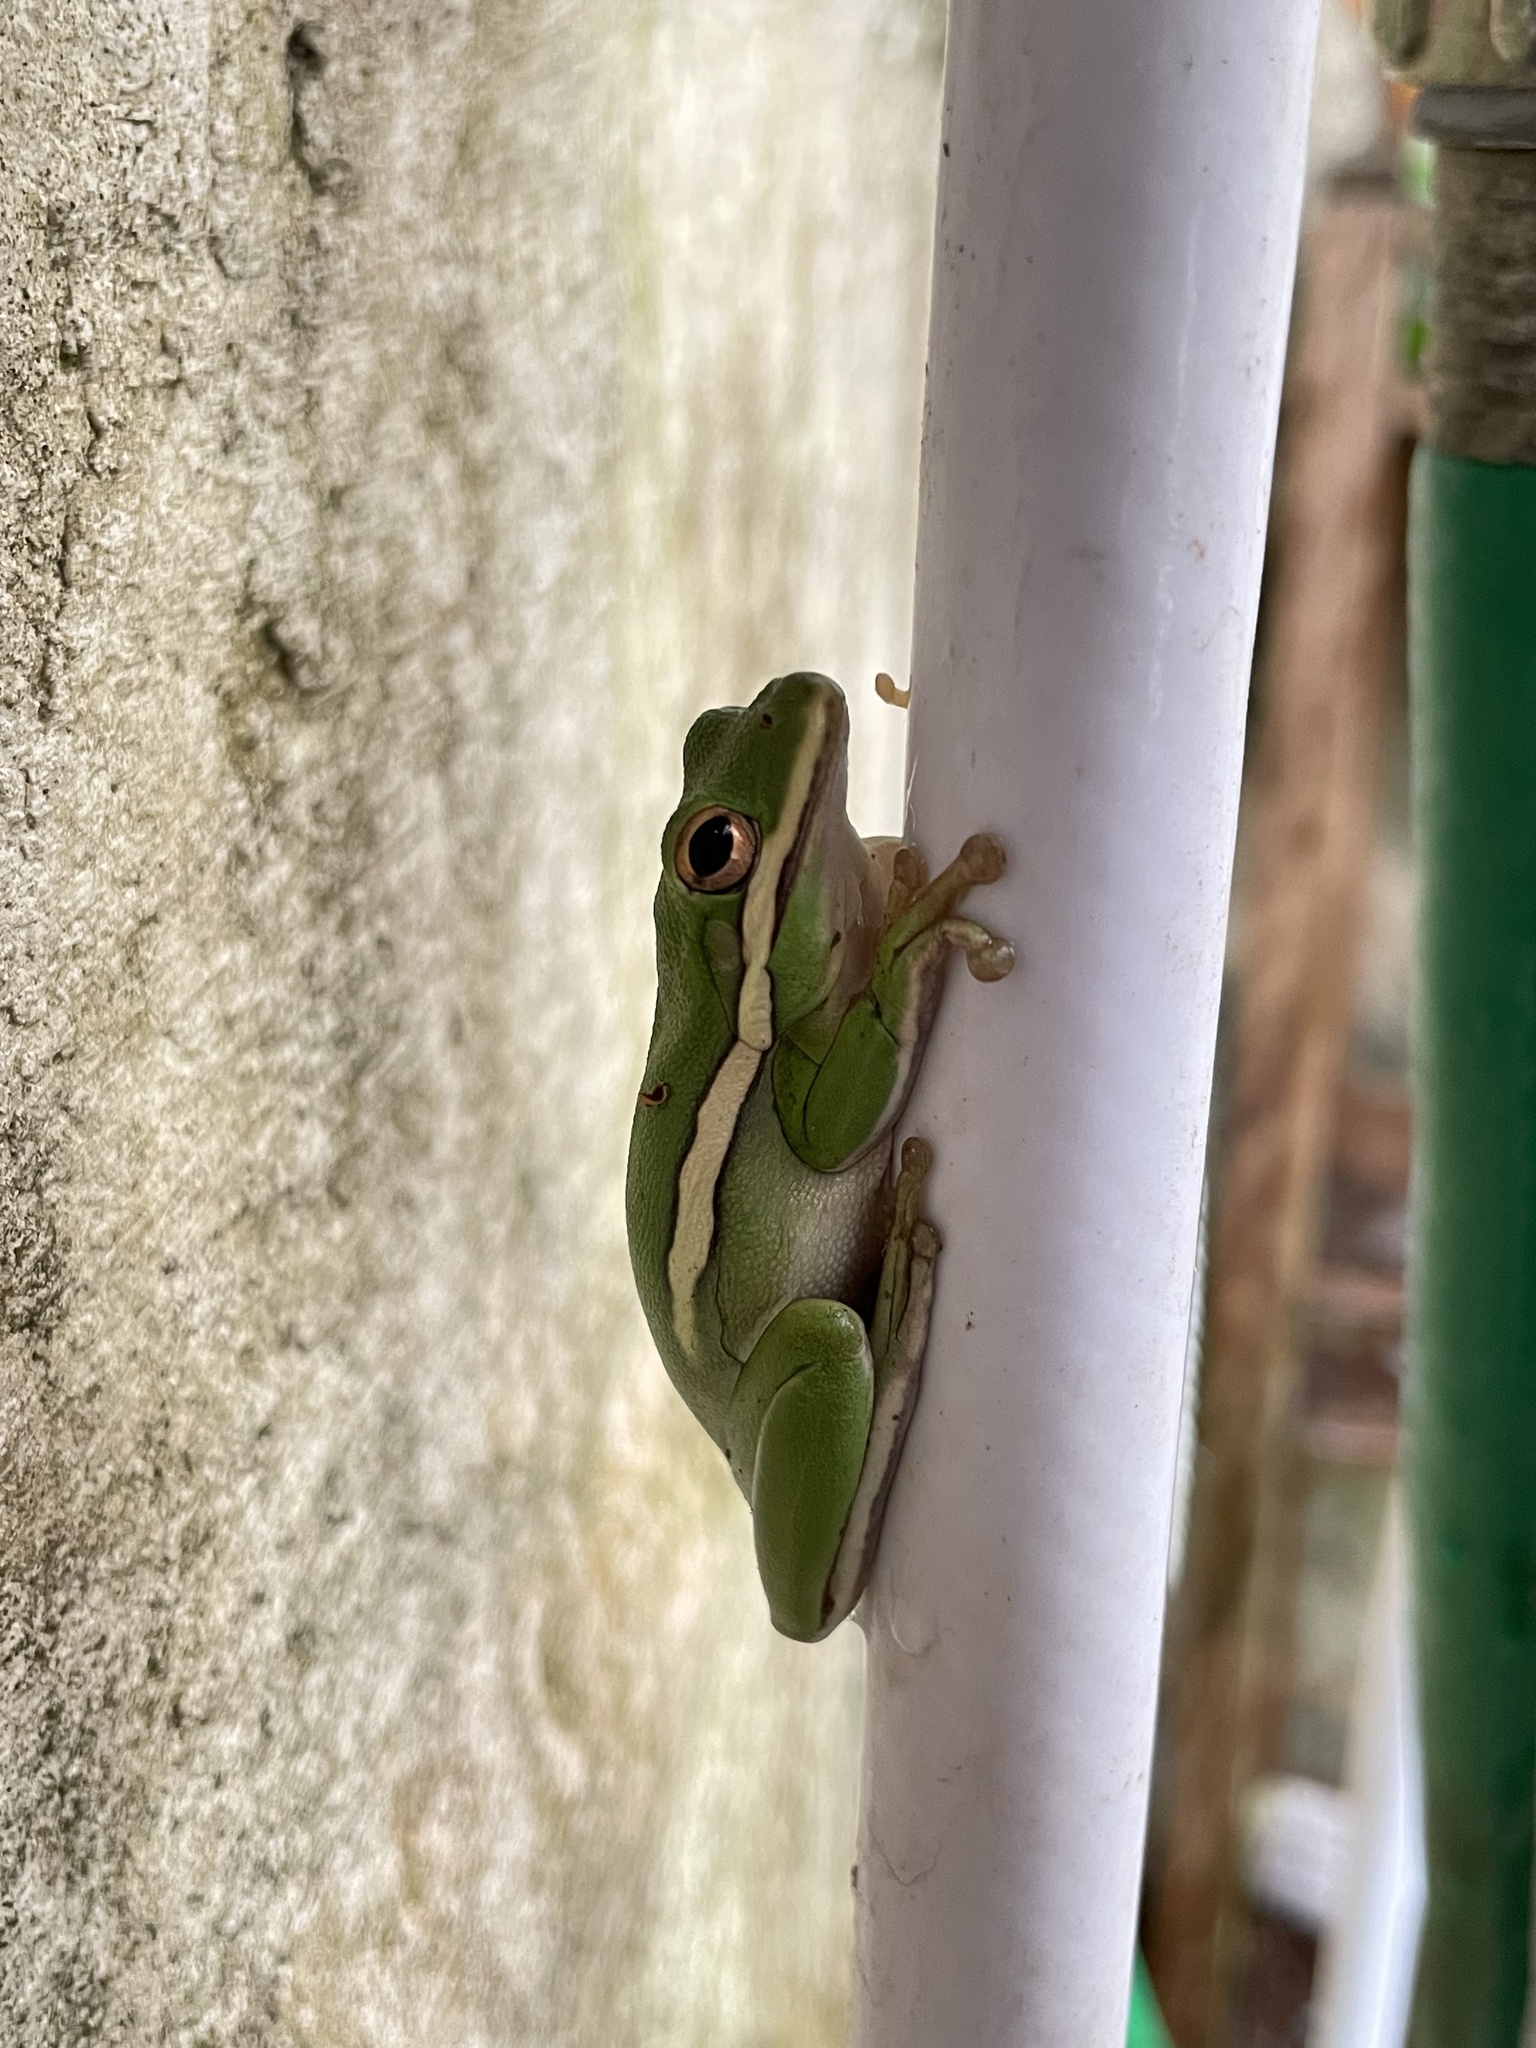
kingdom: Animalia
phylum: Chordata
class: Amphibia
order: Anura
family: Hylidae
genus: Dryophytes
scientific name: Dryophytes cinereus
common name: Green treefrog
